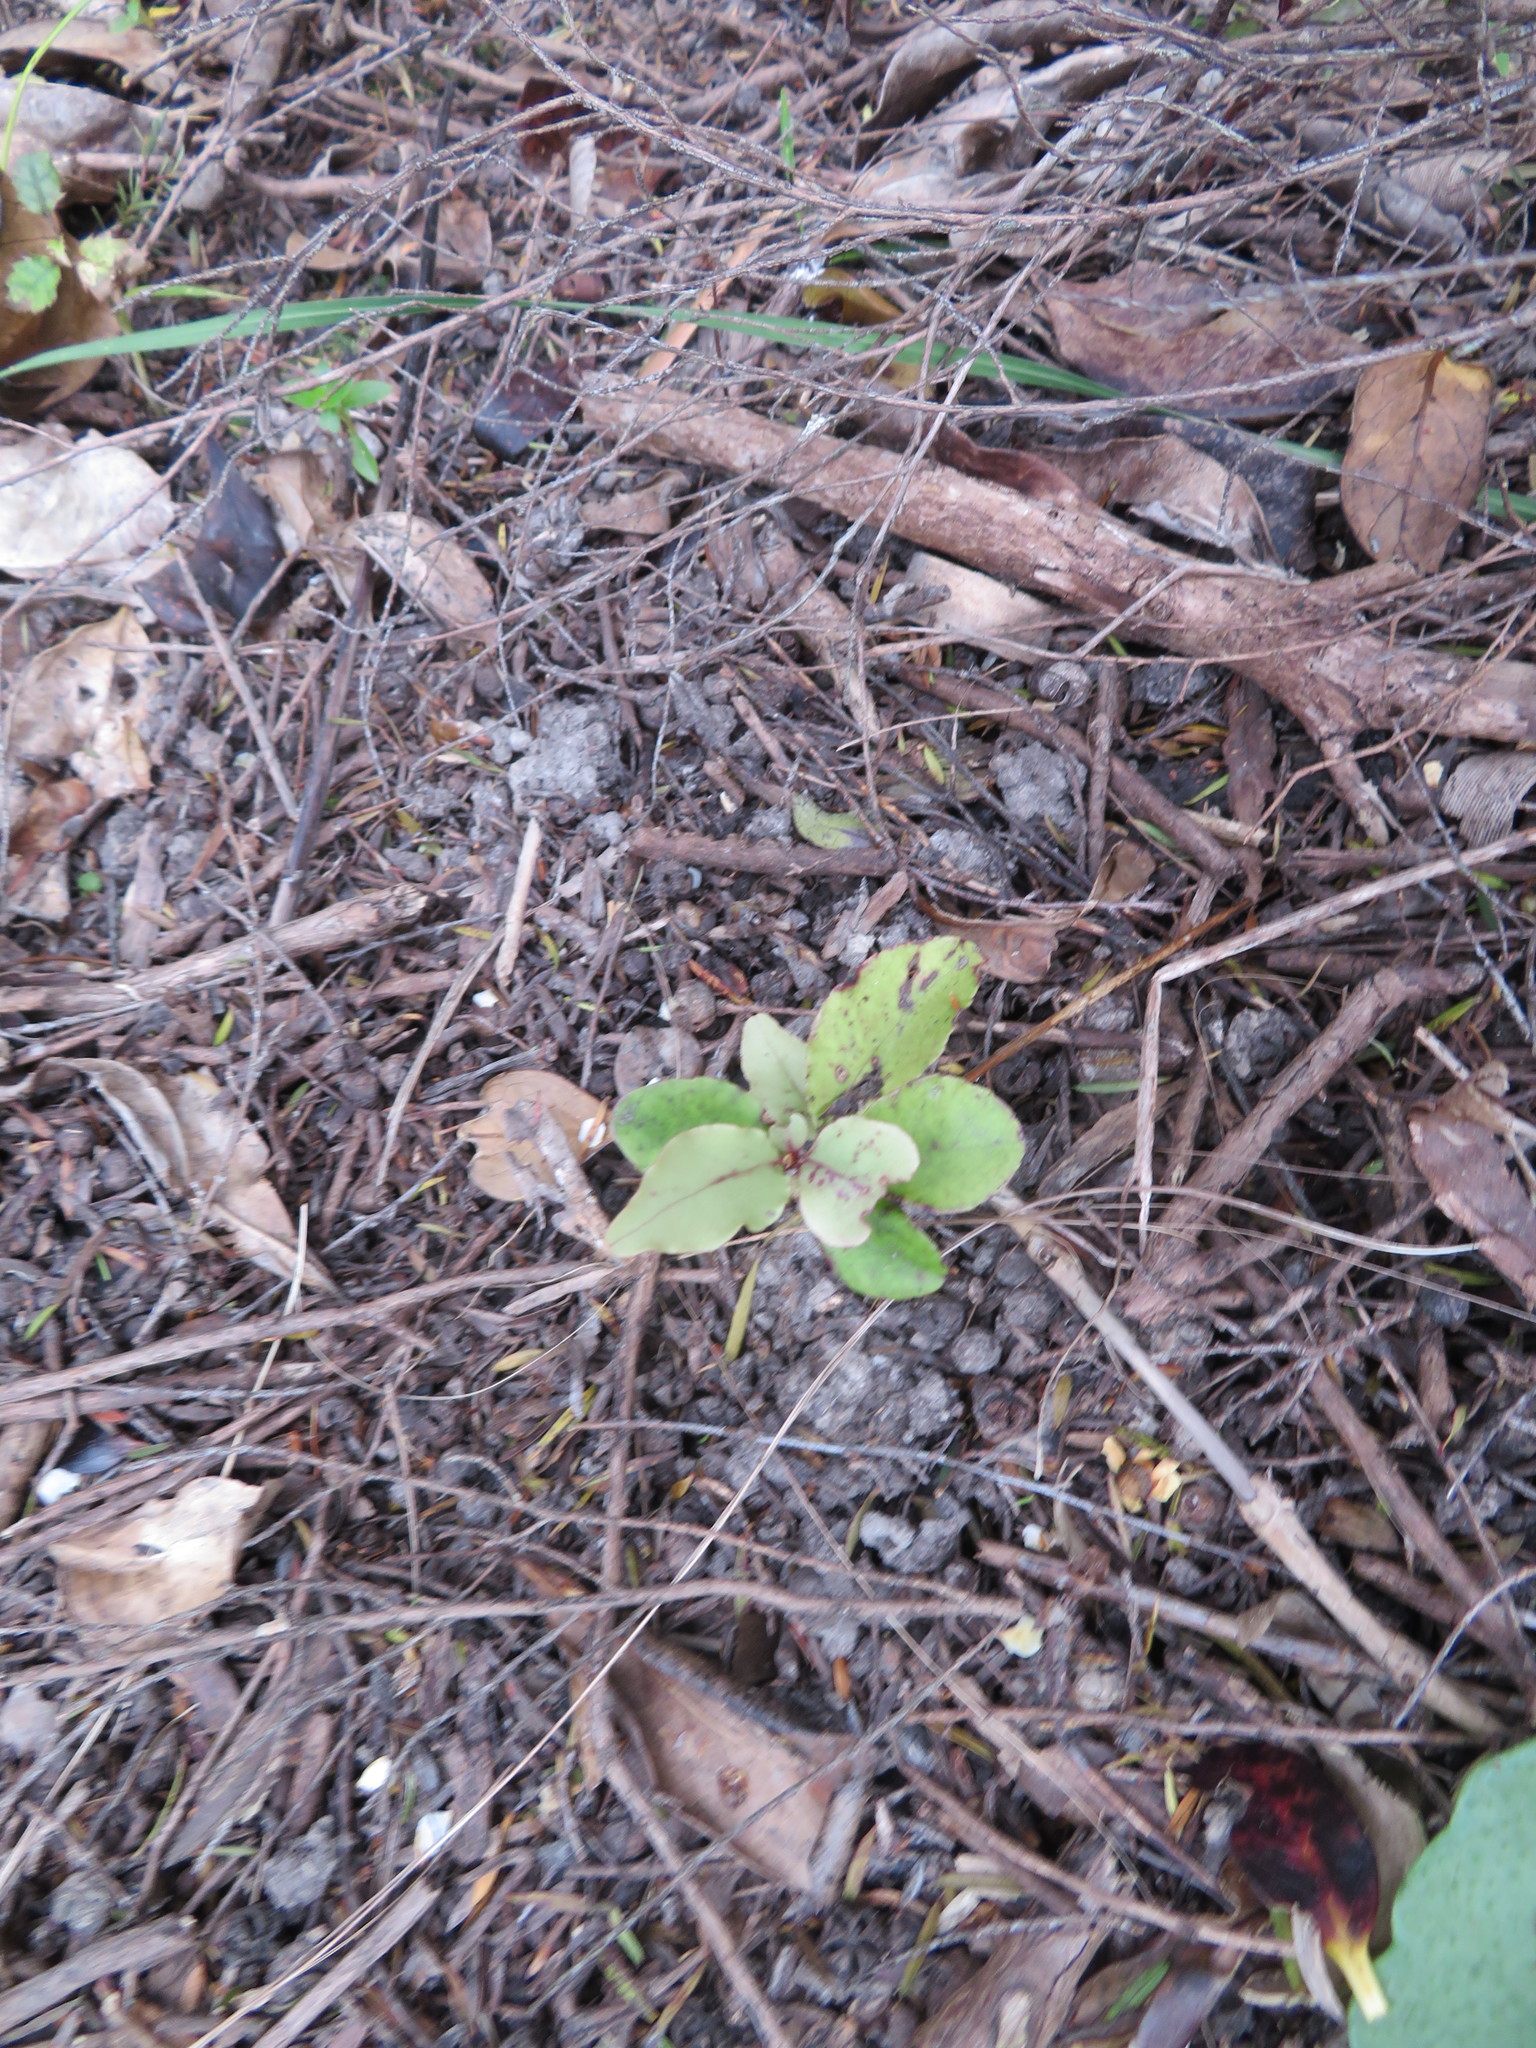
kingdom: Plantae
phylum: Tracheophyta
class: Magnoliopsida
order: Ericales
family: Primulaceae
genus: Myrsine
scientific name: Myrsine australis
